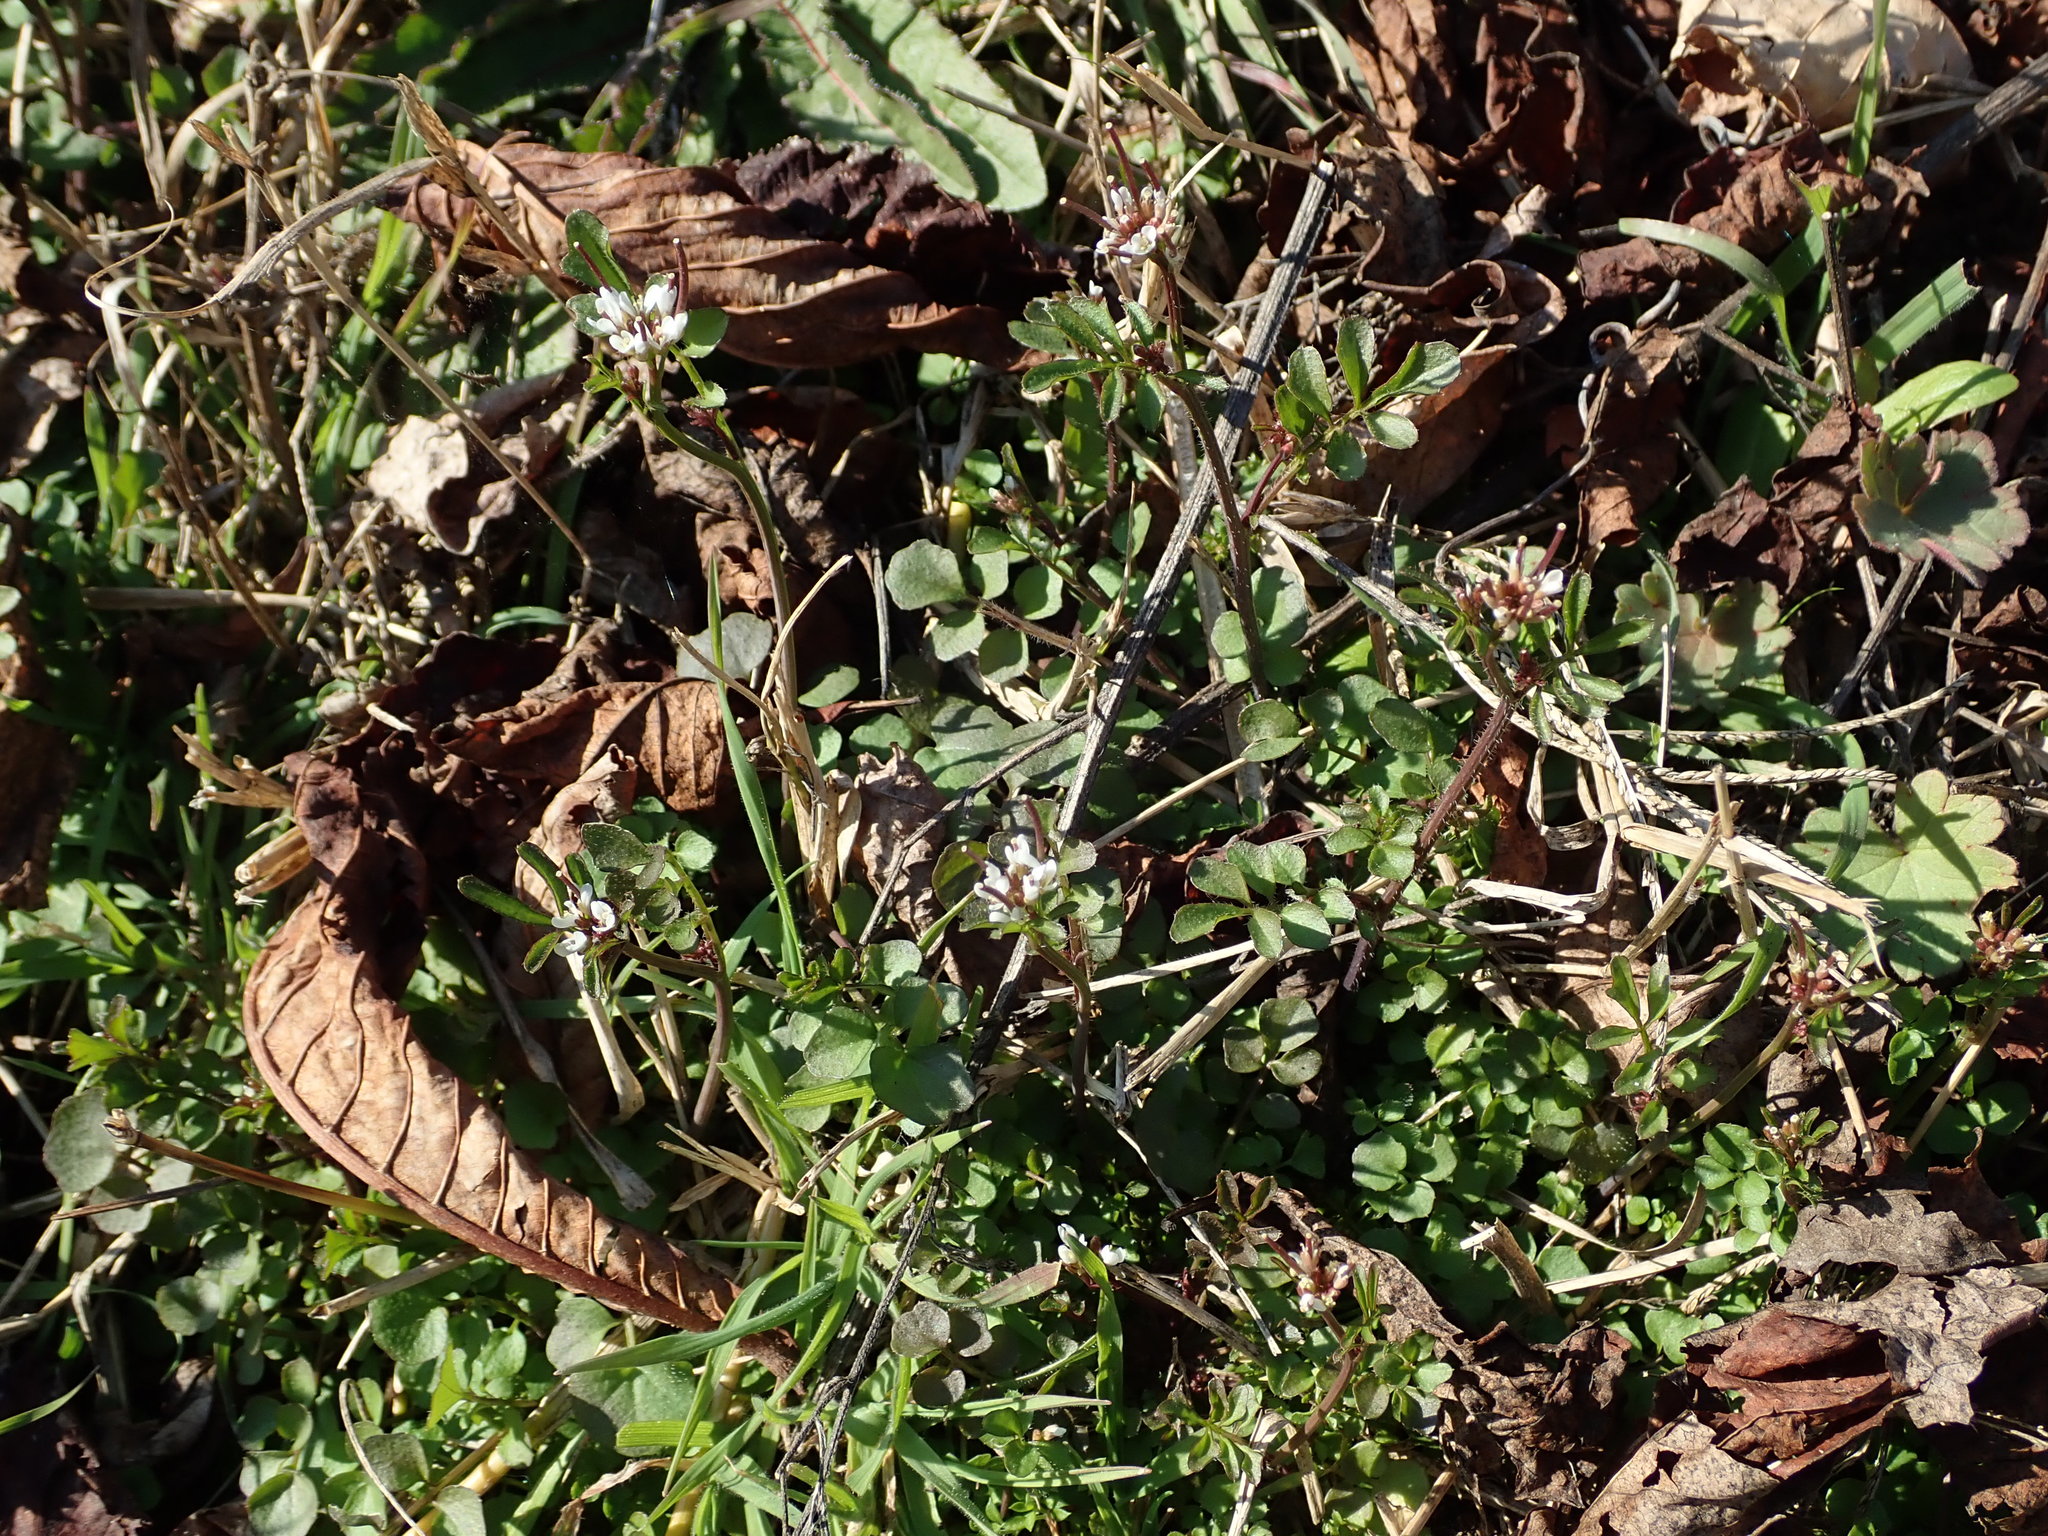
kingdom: Plantae
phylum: Tracheophyta
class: Magnoliopsida
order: Brassicales
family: Brassicaceae
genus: Cardamine
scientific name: Cardamine hirsuta
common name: Hairy bittercress
